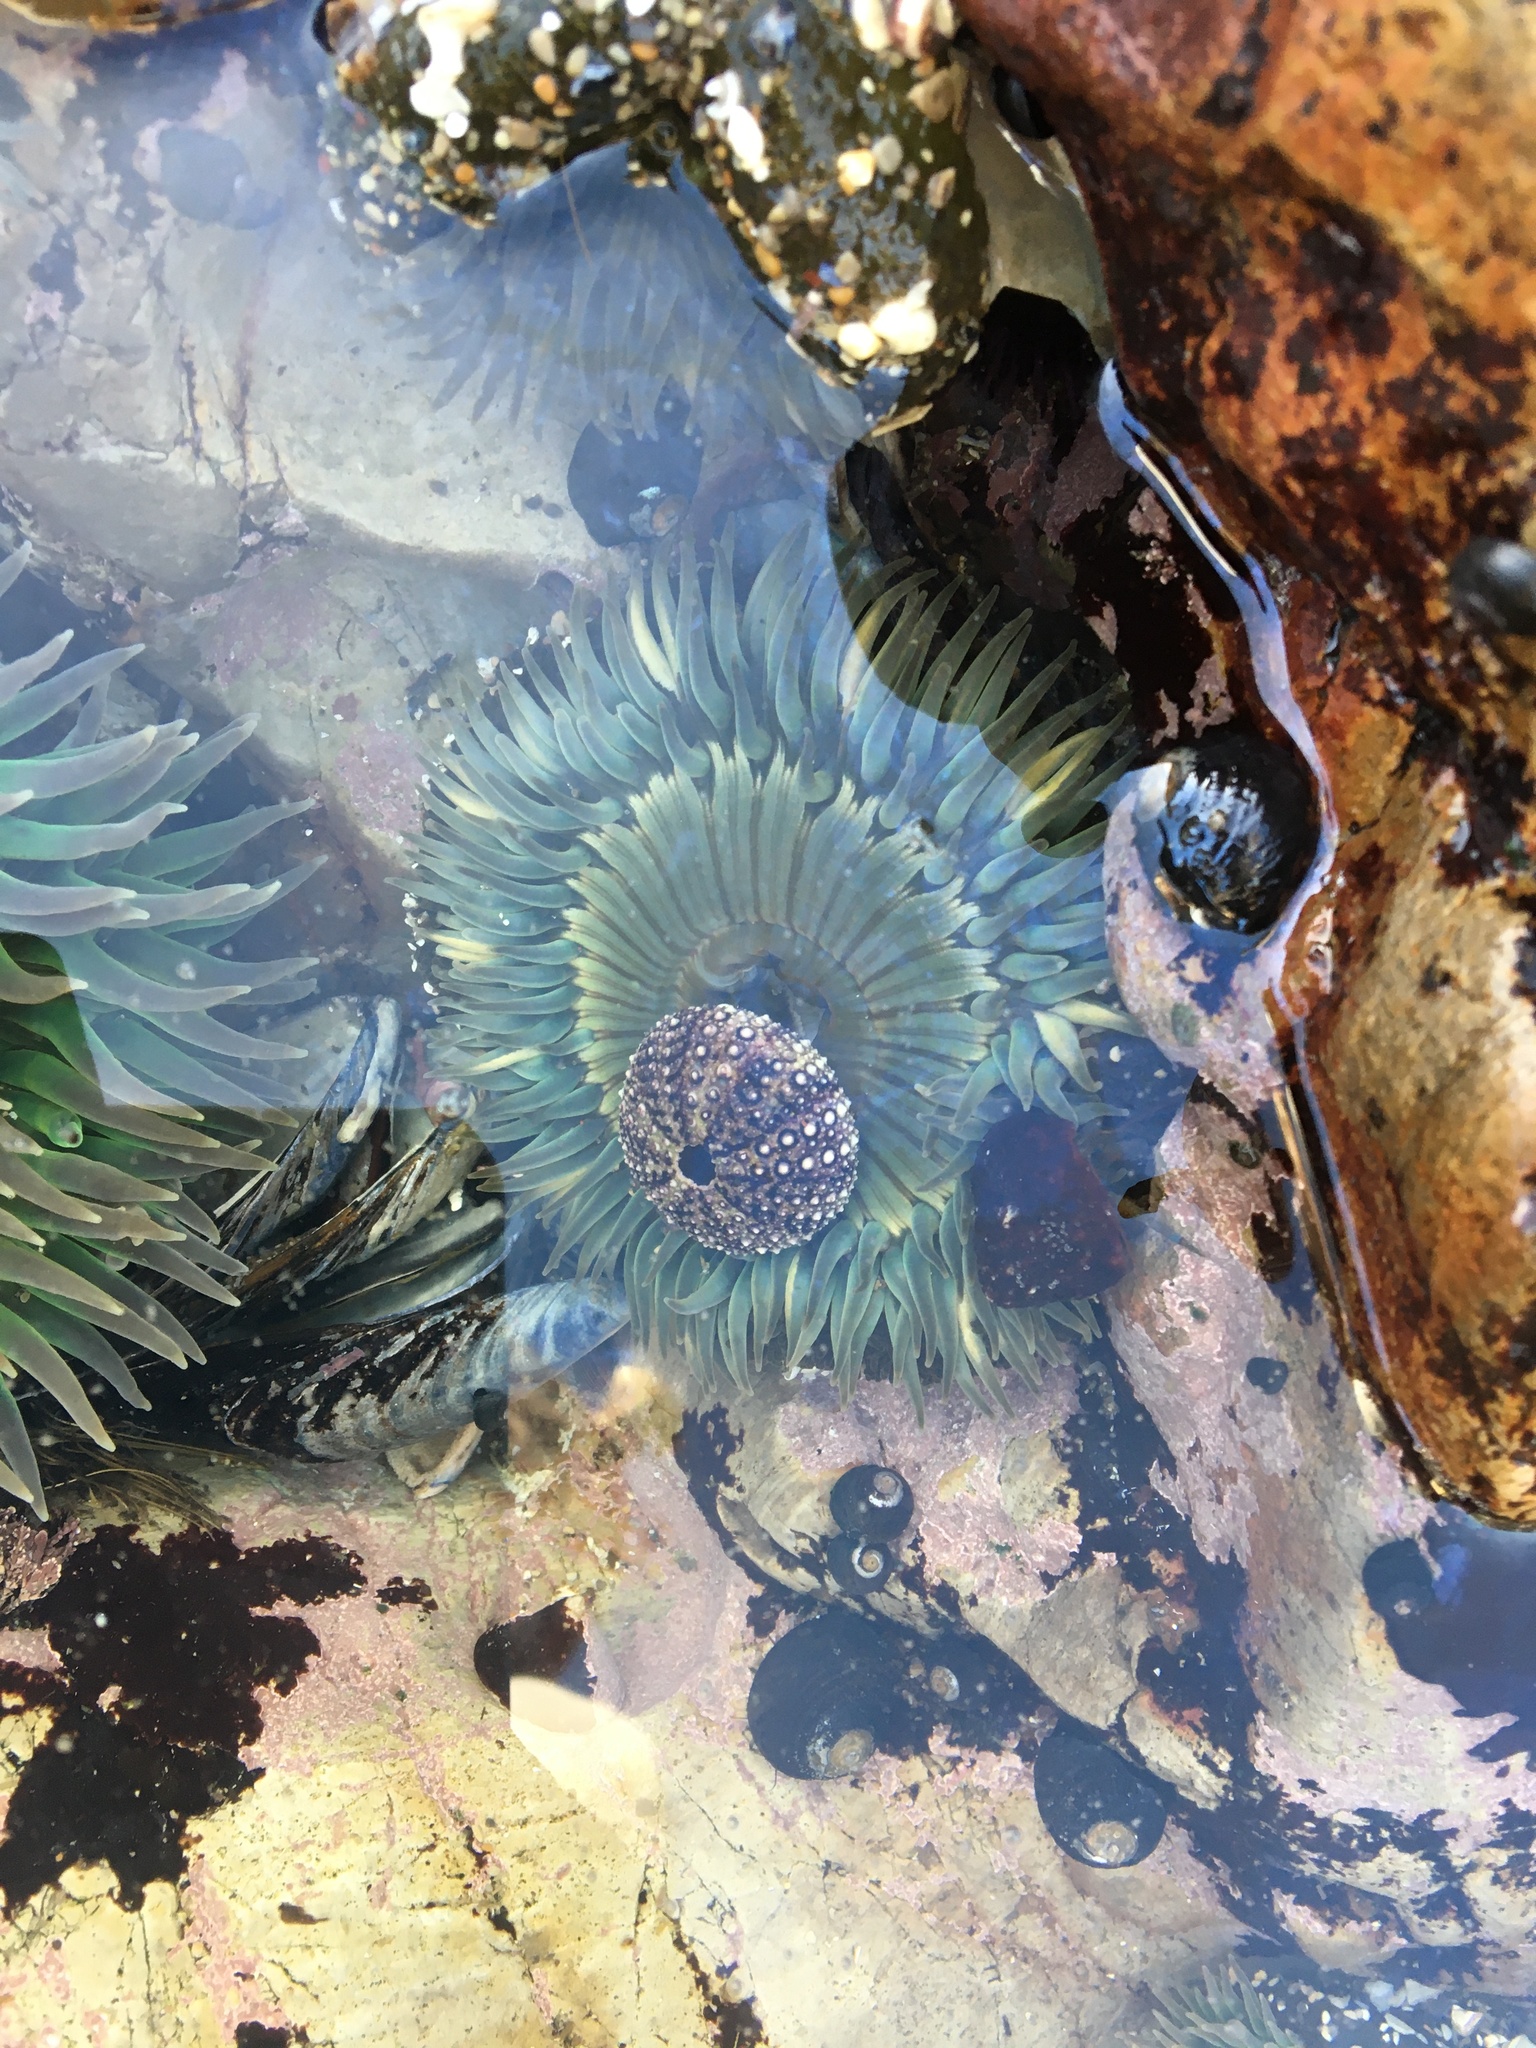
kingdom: Animalia
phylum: Cnidaria
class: Anthozoa
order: Actiniaria
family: Actiniidae
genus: Anthopleura
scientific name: Anthopleura sola
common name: Sun anemone
